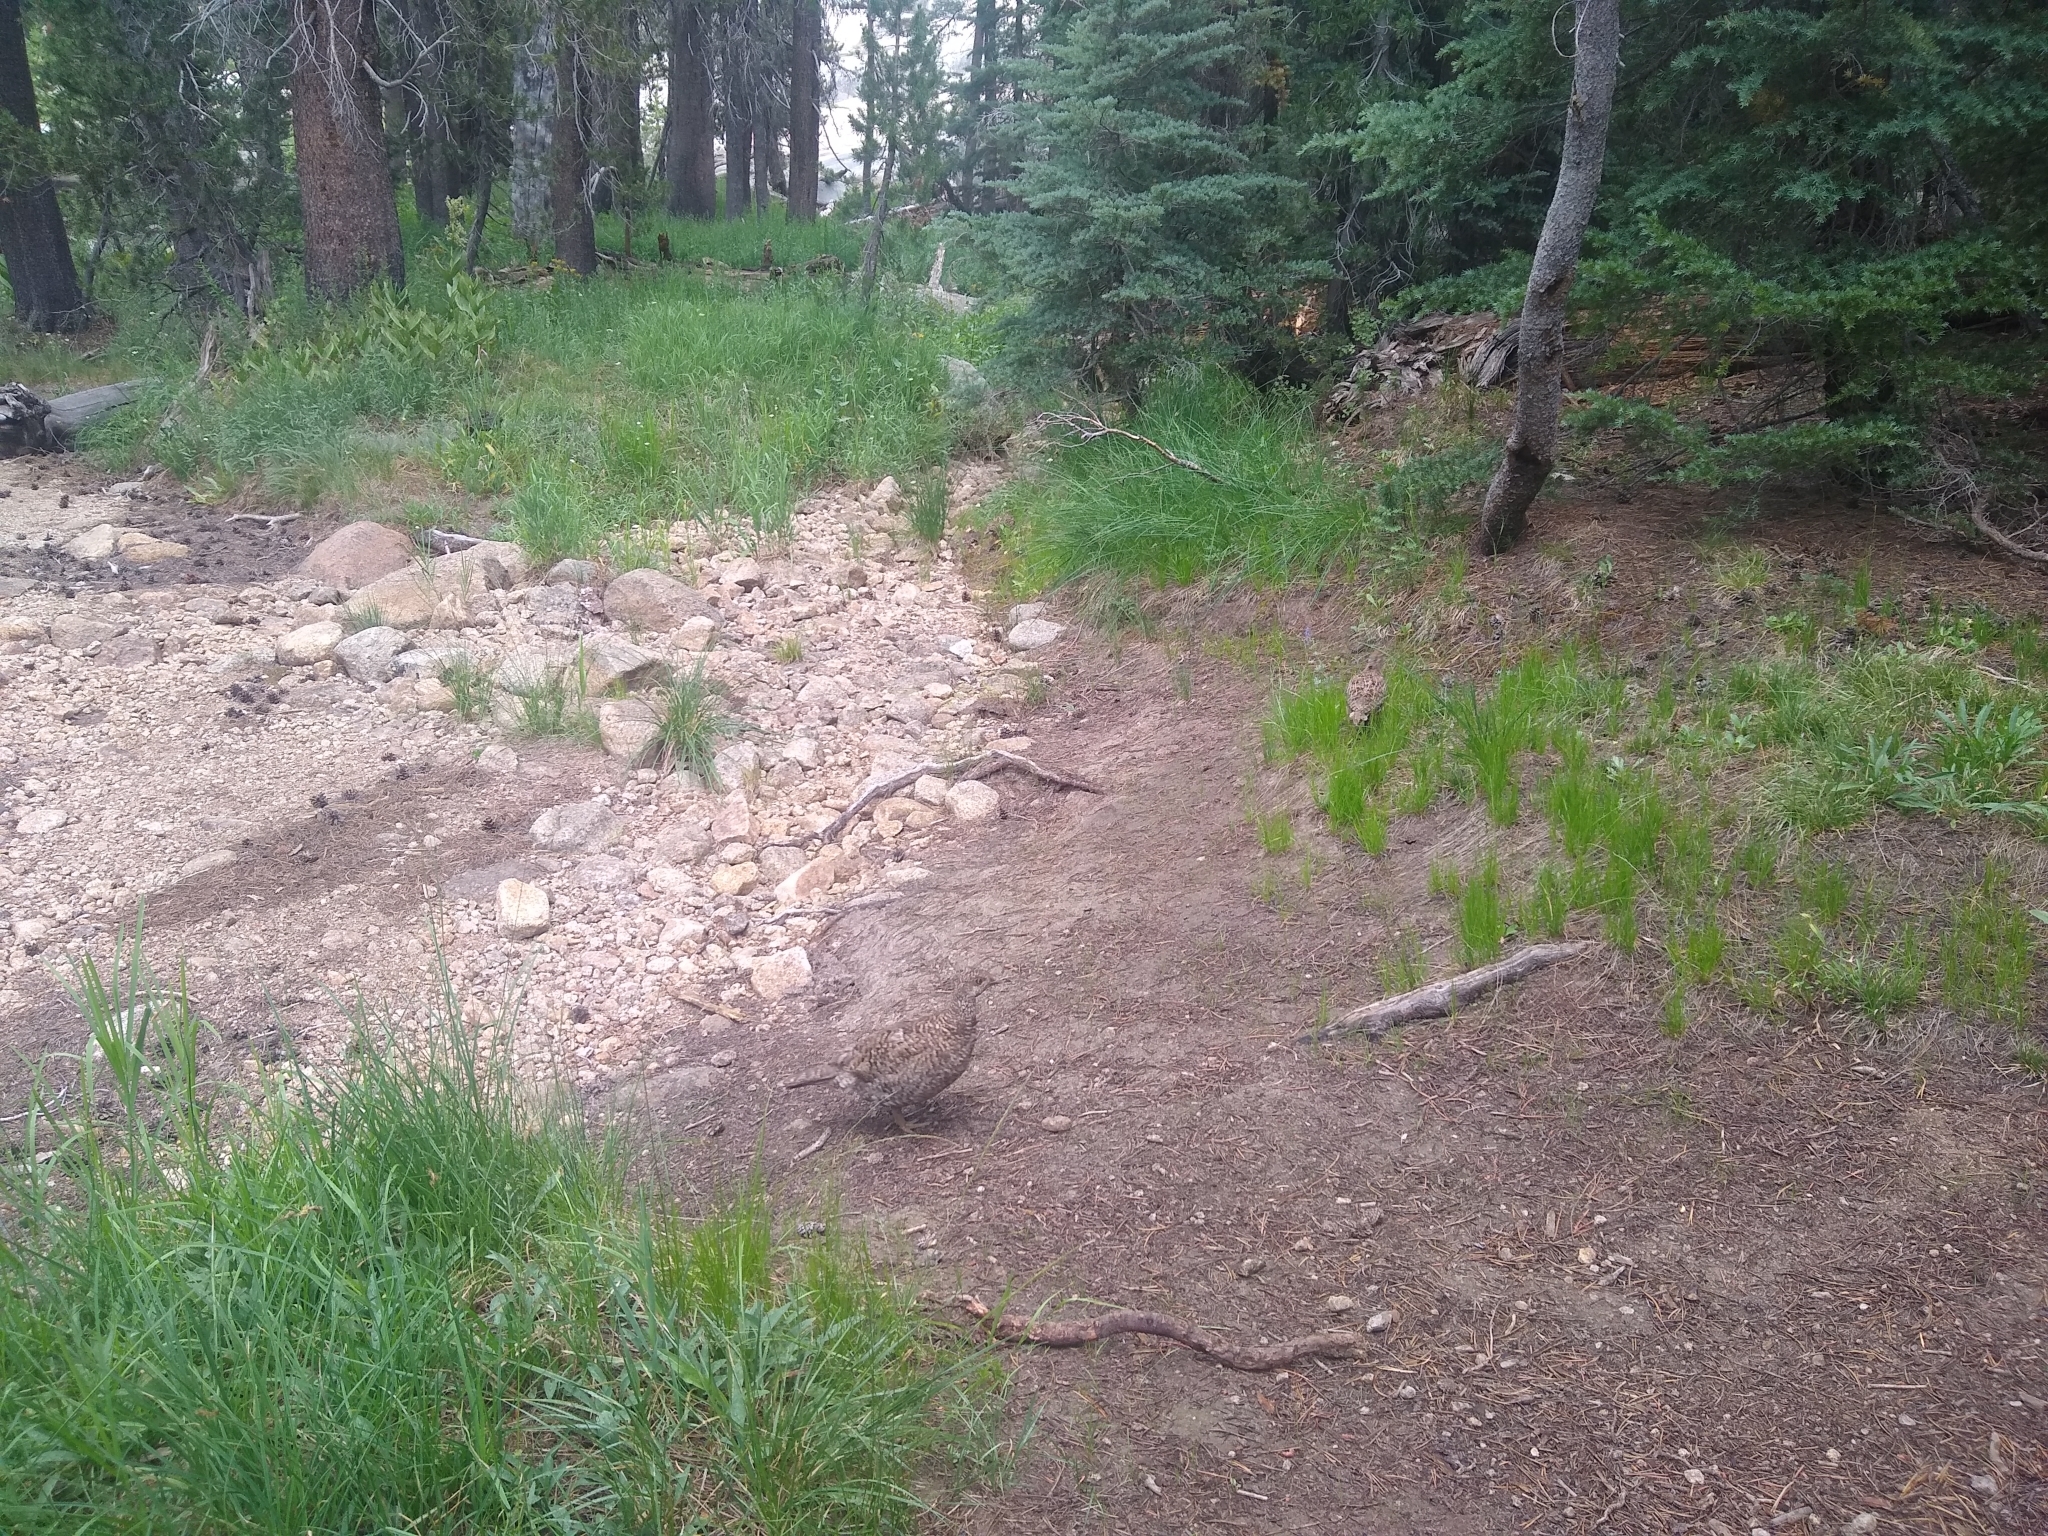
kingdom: Animalia
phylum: Chordata
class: Aves
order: Galliformes
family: Phasianidae
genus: Dendragapus
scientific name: Dendragapus fuliginosus
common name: Sooty grouse
